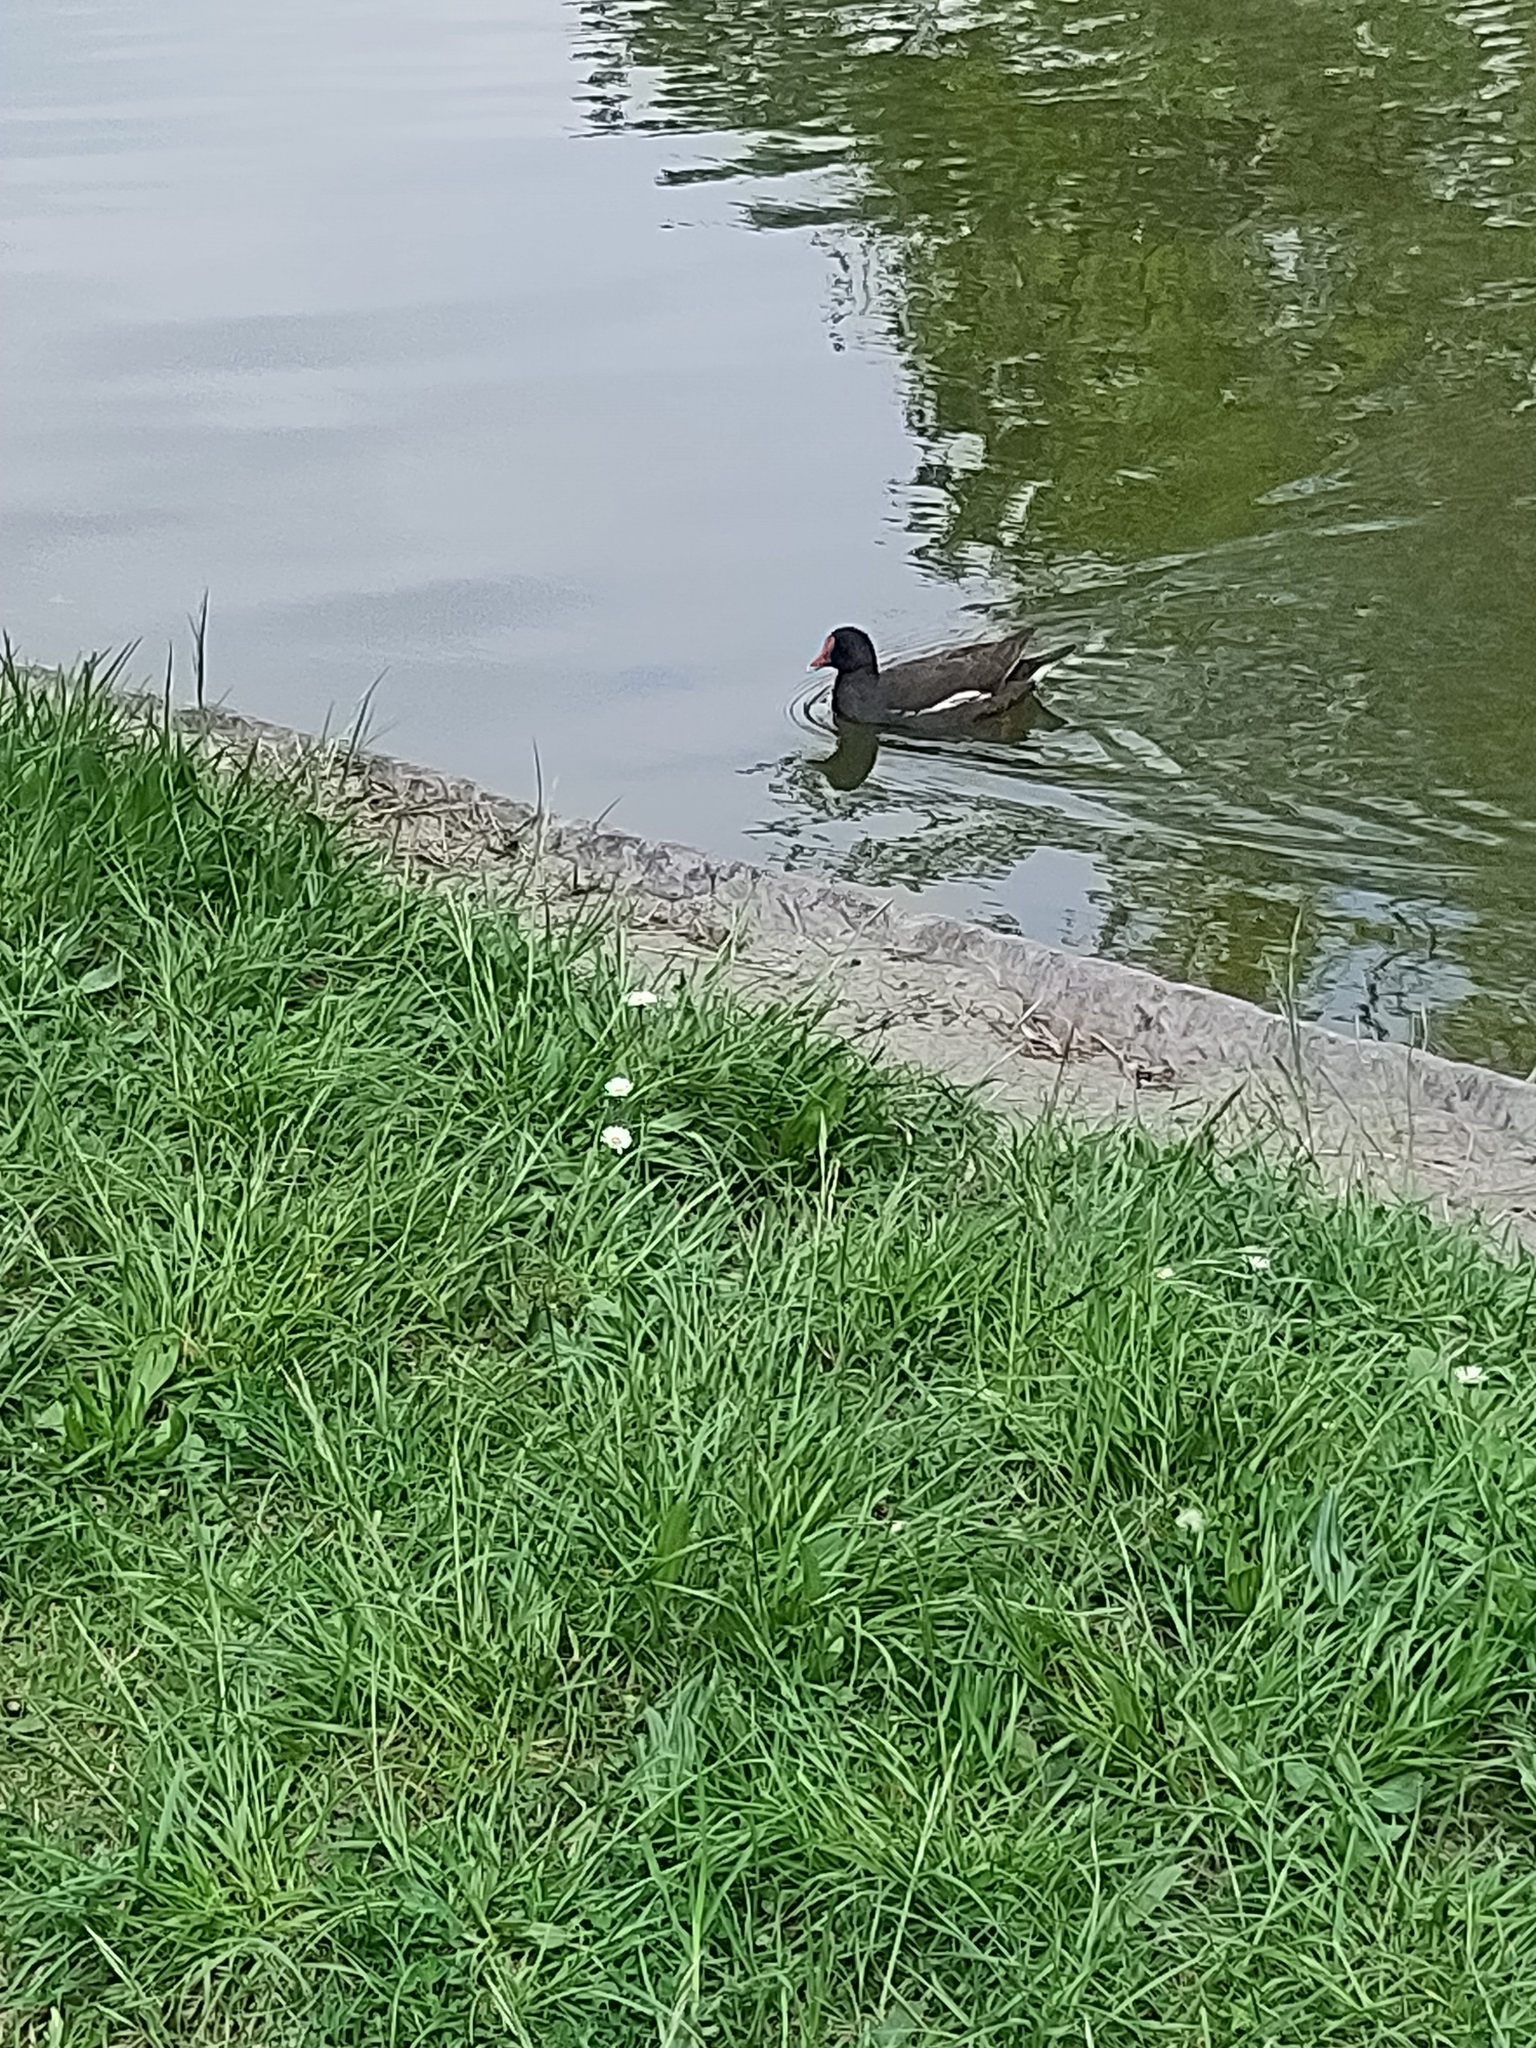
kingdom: Animalia
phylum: Chordata
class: Aves
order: Gruiformes
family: Rallidae
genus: Gallinula
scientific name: Gallinula chloropus
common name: Common moorhen
